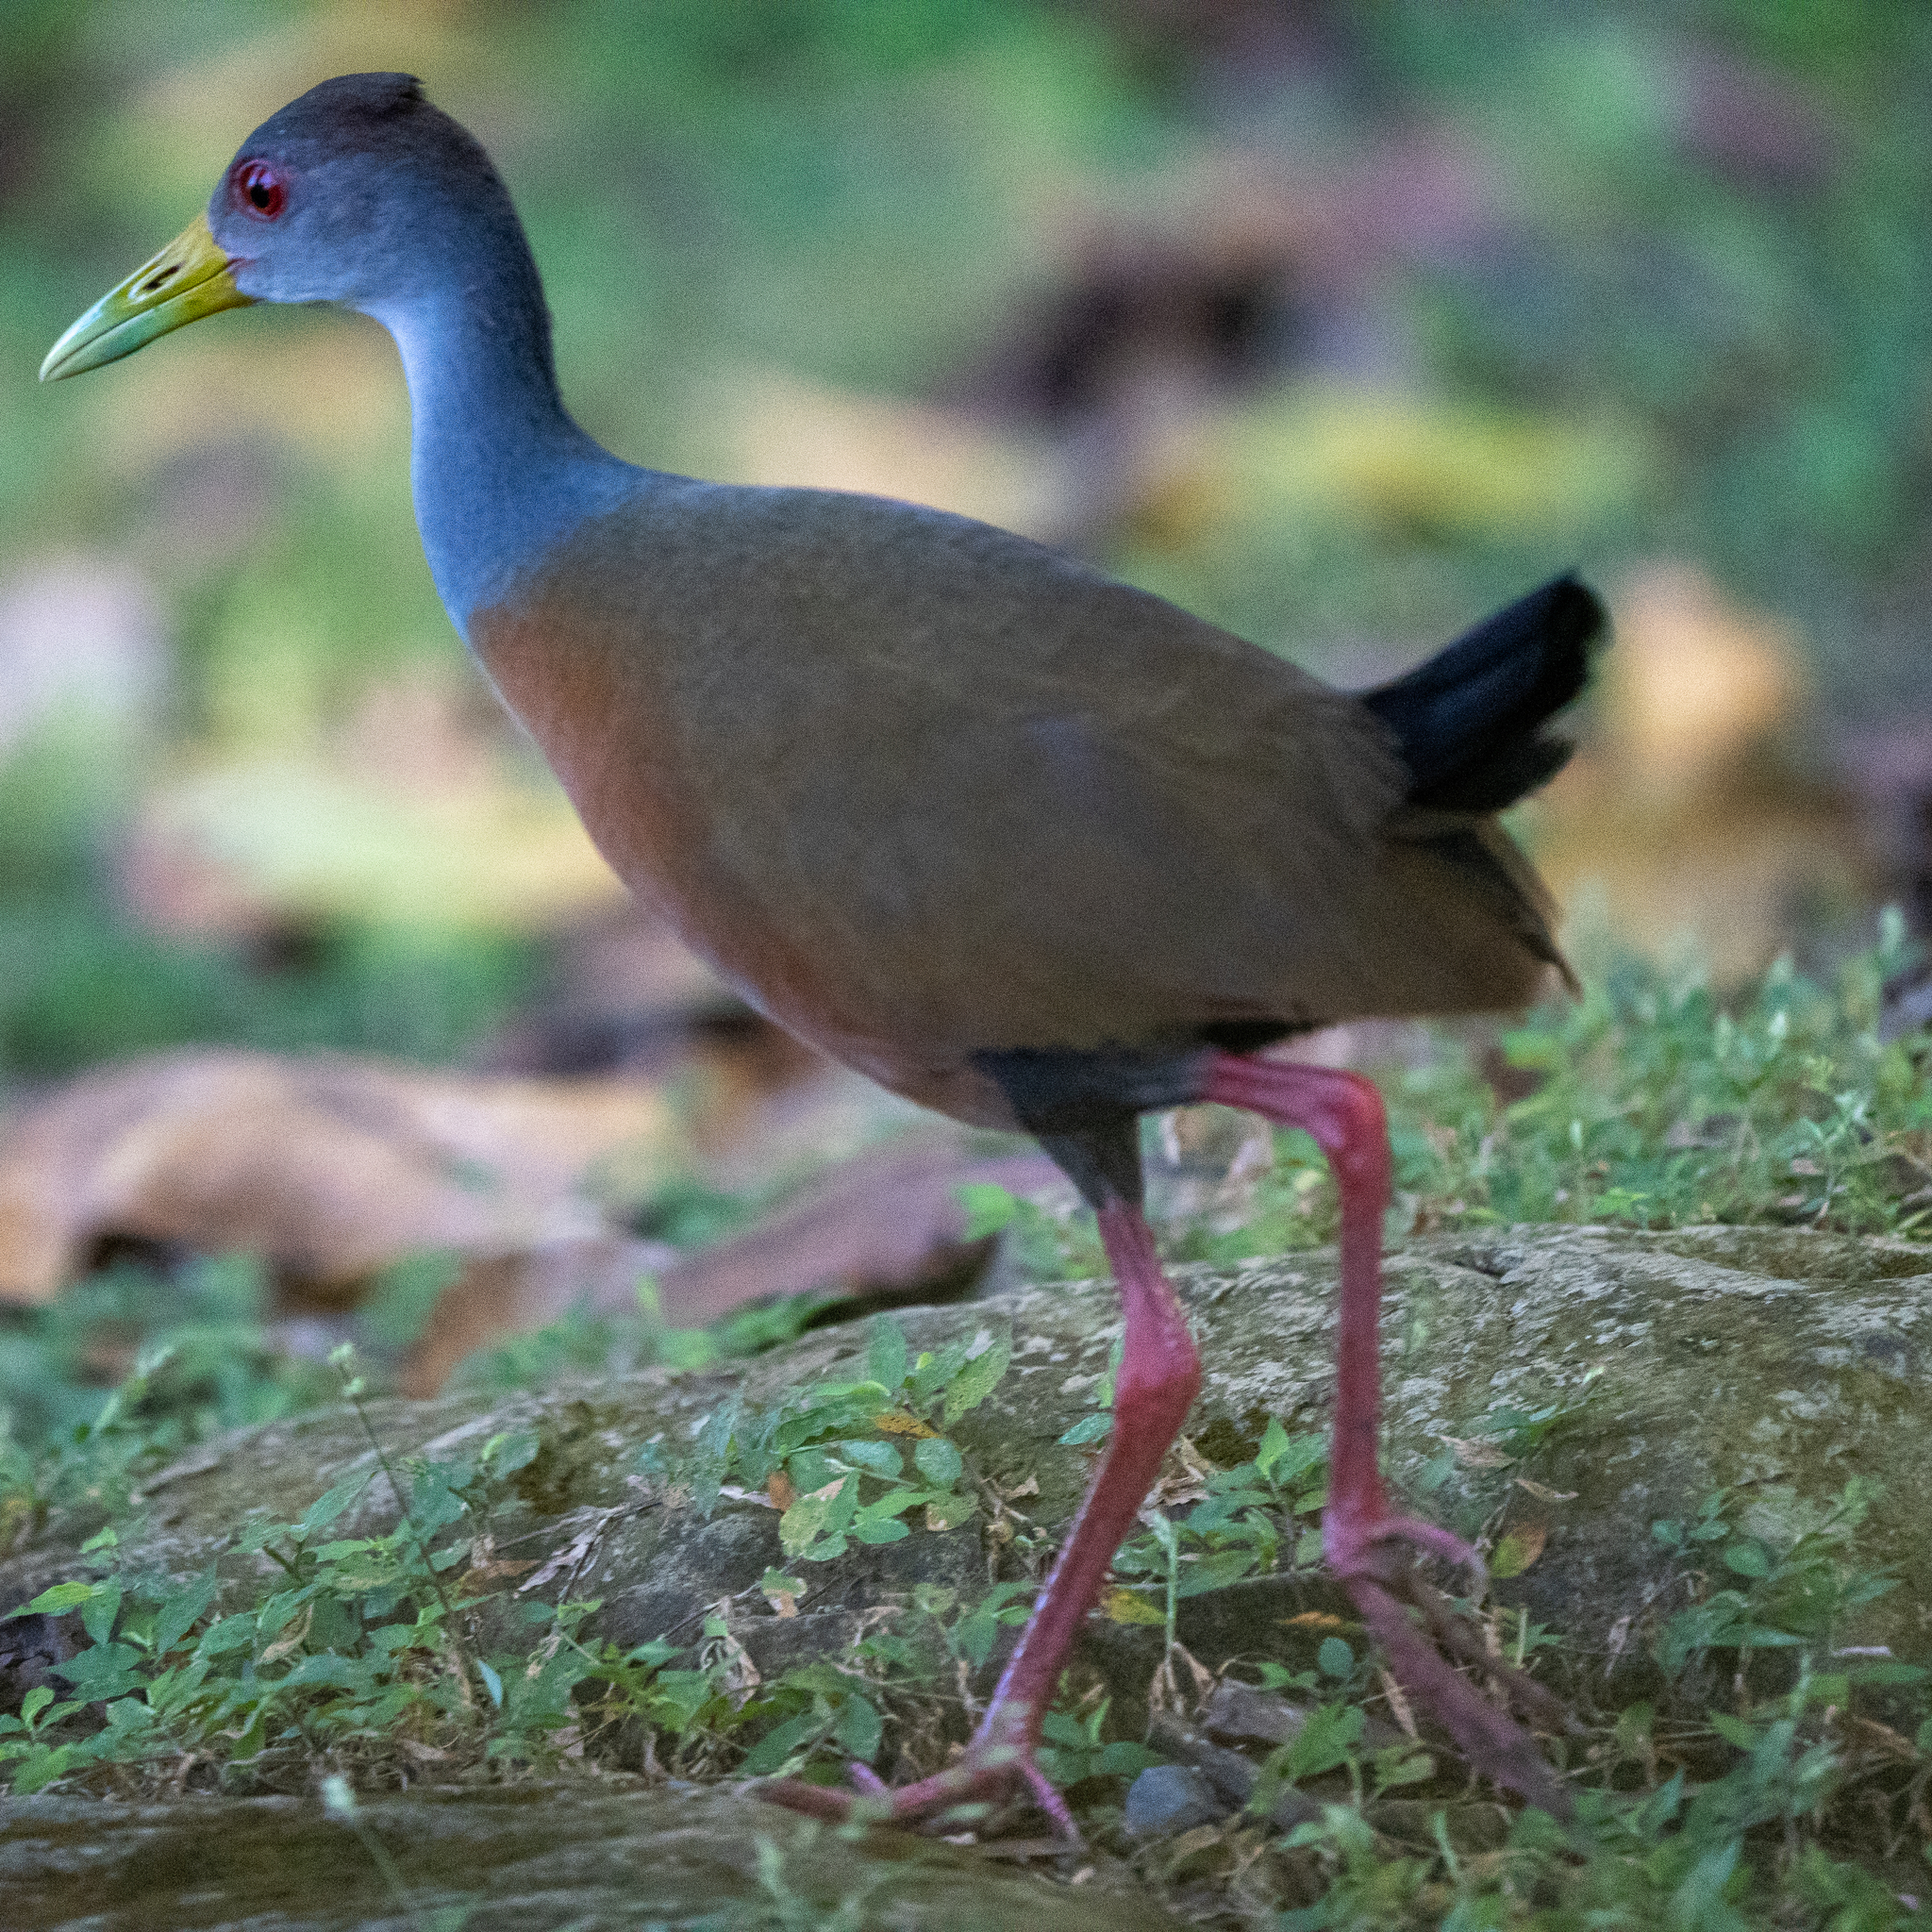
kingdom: Animalia
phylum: Chordata
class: Aves
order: Gruiformes
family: Rallidae
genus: Aramides
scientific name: Aramides cajanea
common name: Gray-necked wood-rail
